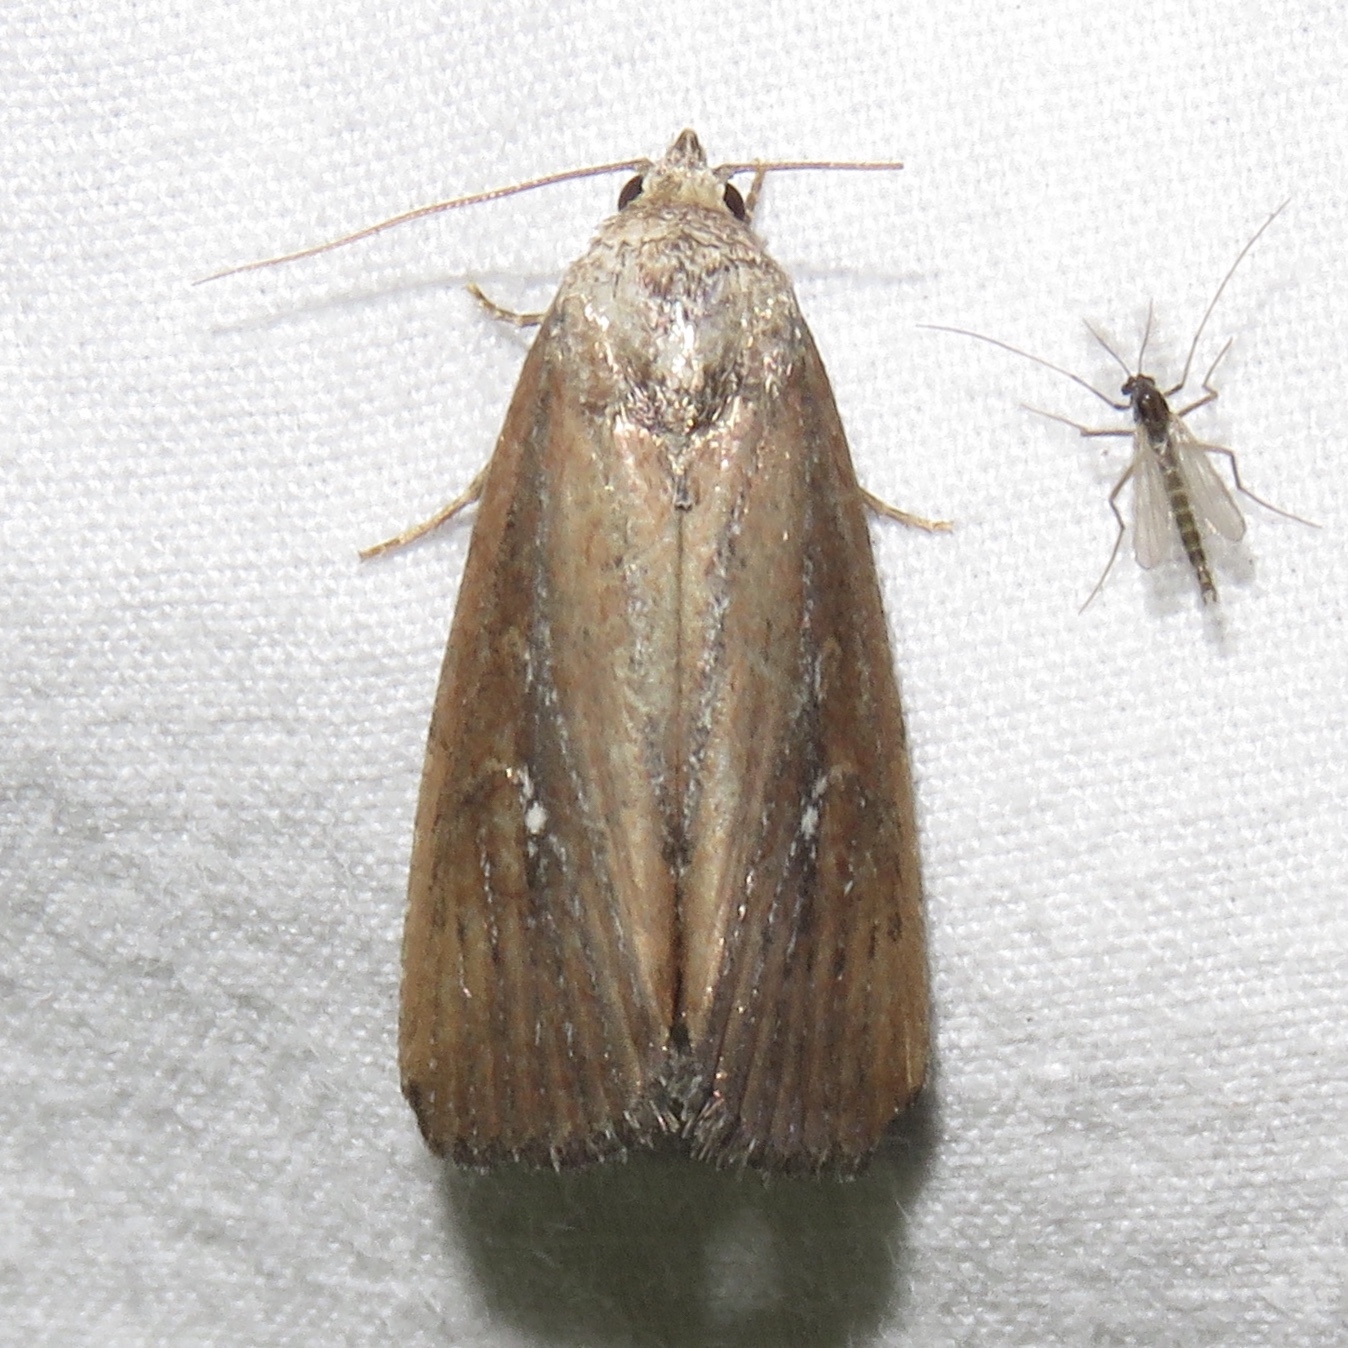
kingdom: Animalia
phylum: Arthropoda
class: Insecta
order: Lepidoptera
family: Noctuidae
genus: Condica
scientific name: Condica videns
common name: White-dotted groundling
